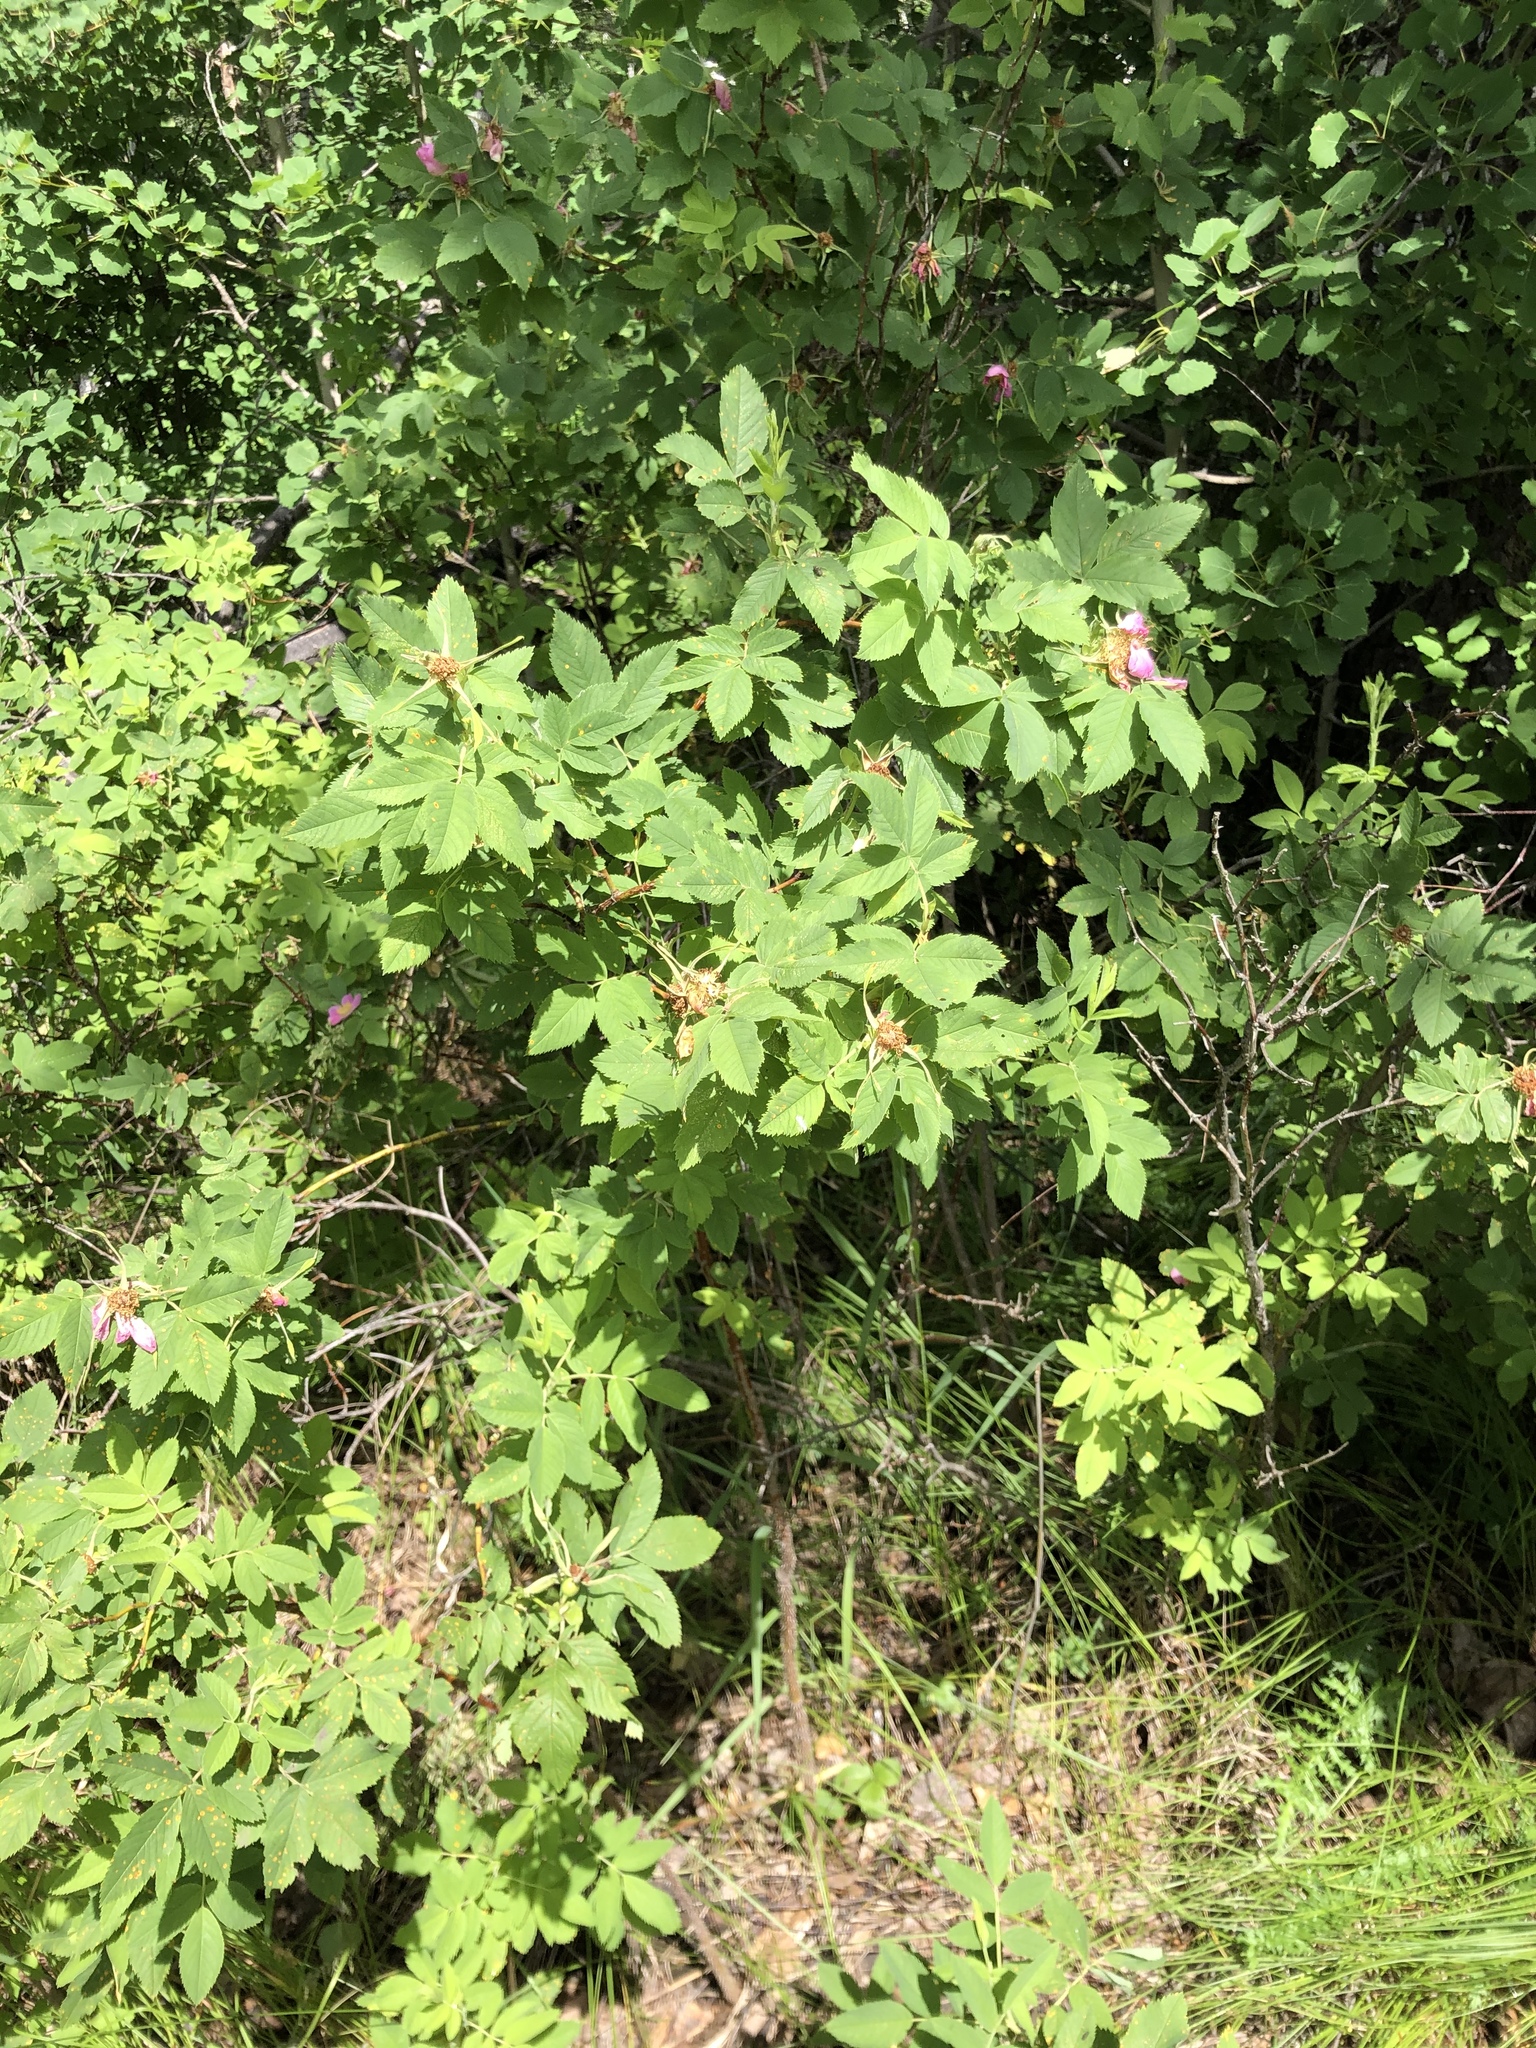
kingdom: Plantae
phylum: Tracheophyta
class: Magnoliopsida
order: Rosales
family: Rosaceae
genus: Rosa
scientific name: Rosa acicularis
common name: Prickly rose
